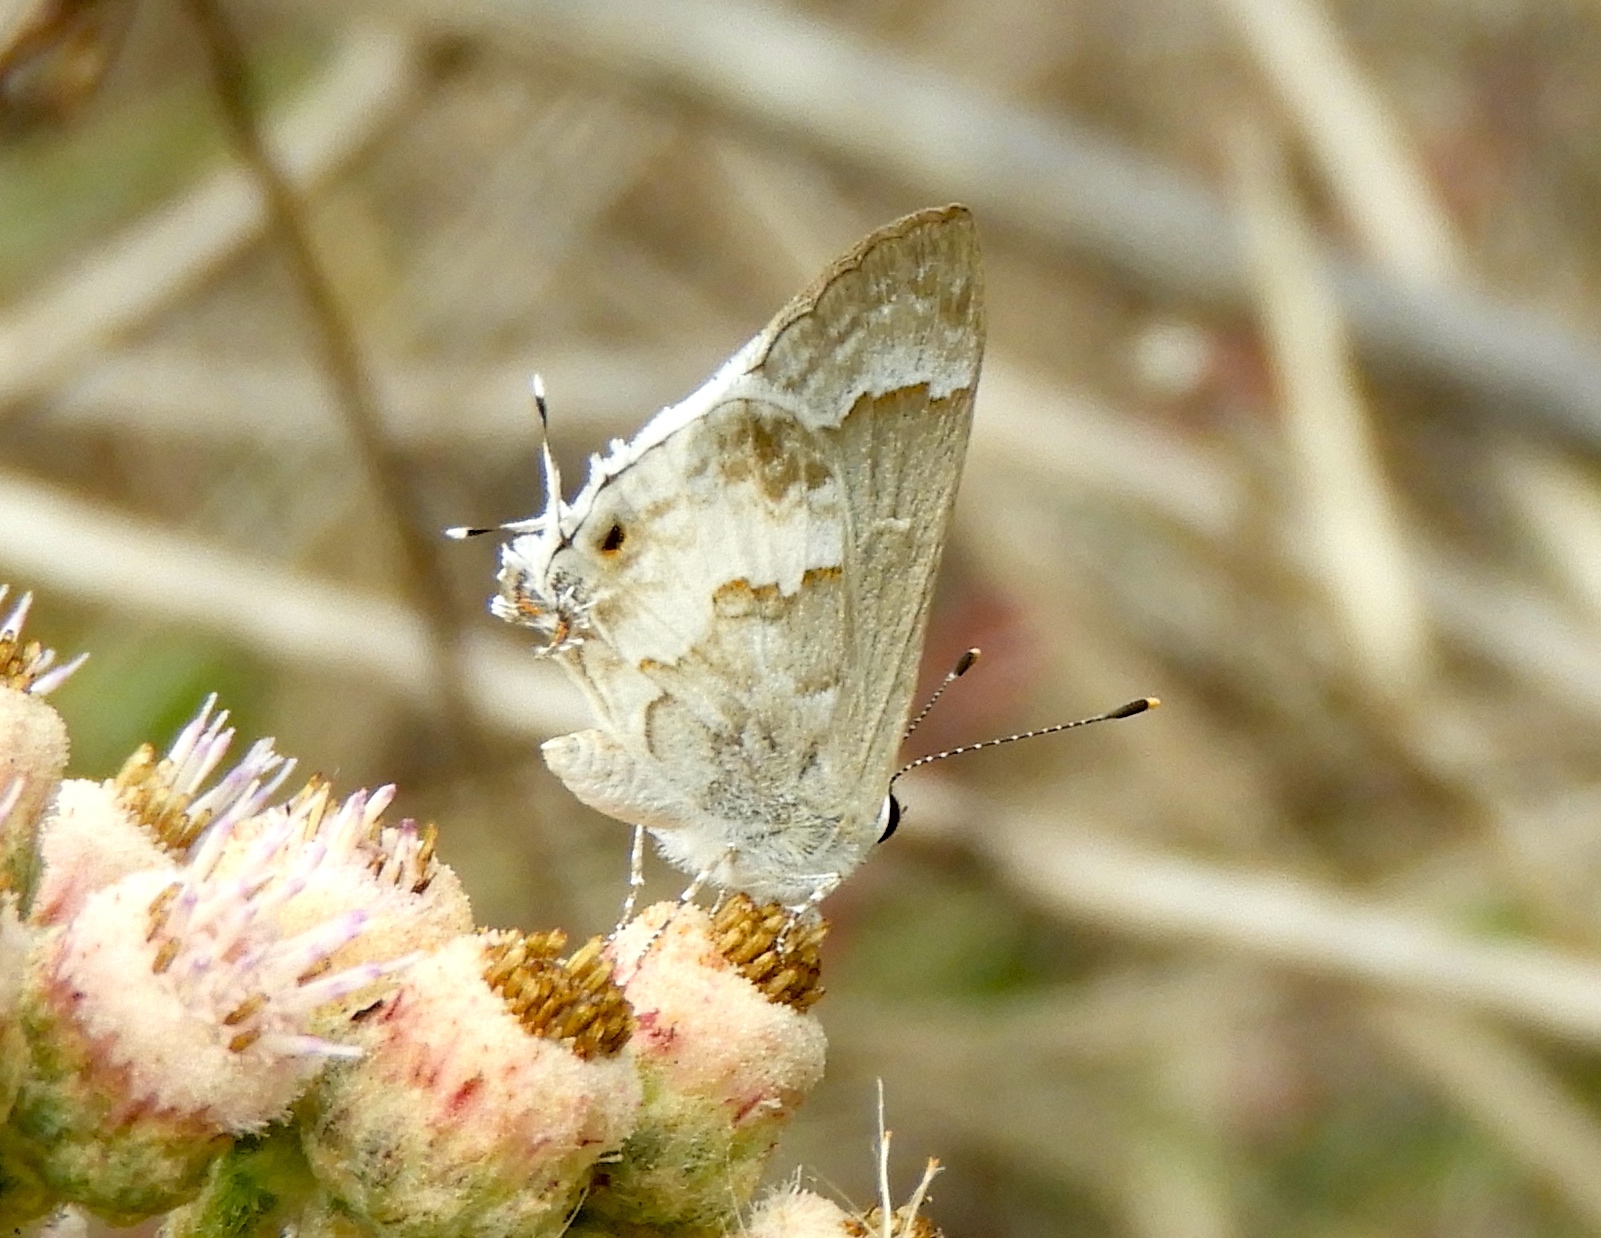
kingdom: Animalia
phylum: Arthropoda
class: Insecta
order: Lepidoptera
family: Lycaenidae
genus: Strymon
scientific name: Strymon albata
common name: White scrub-hairstreak
